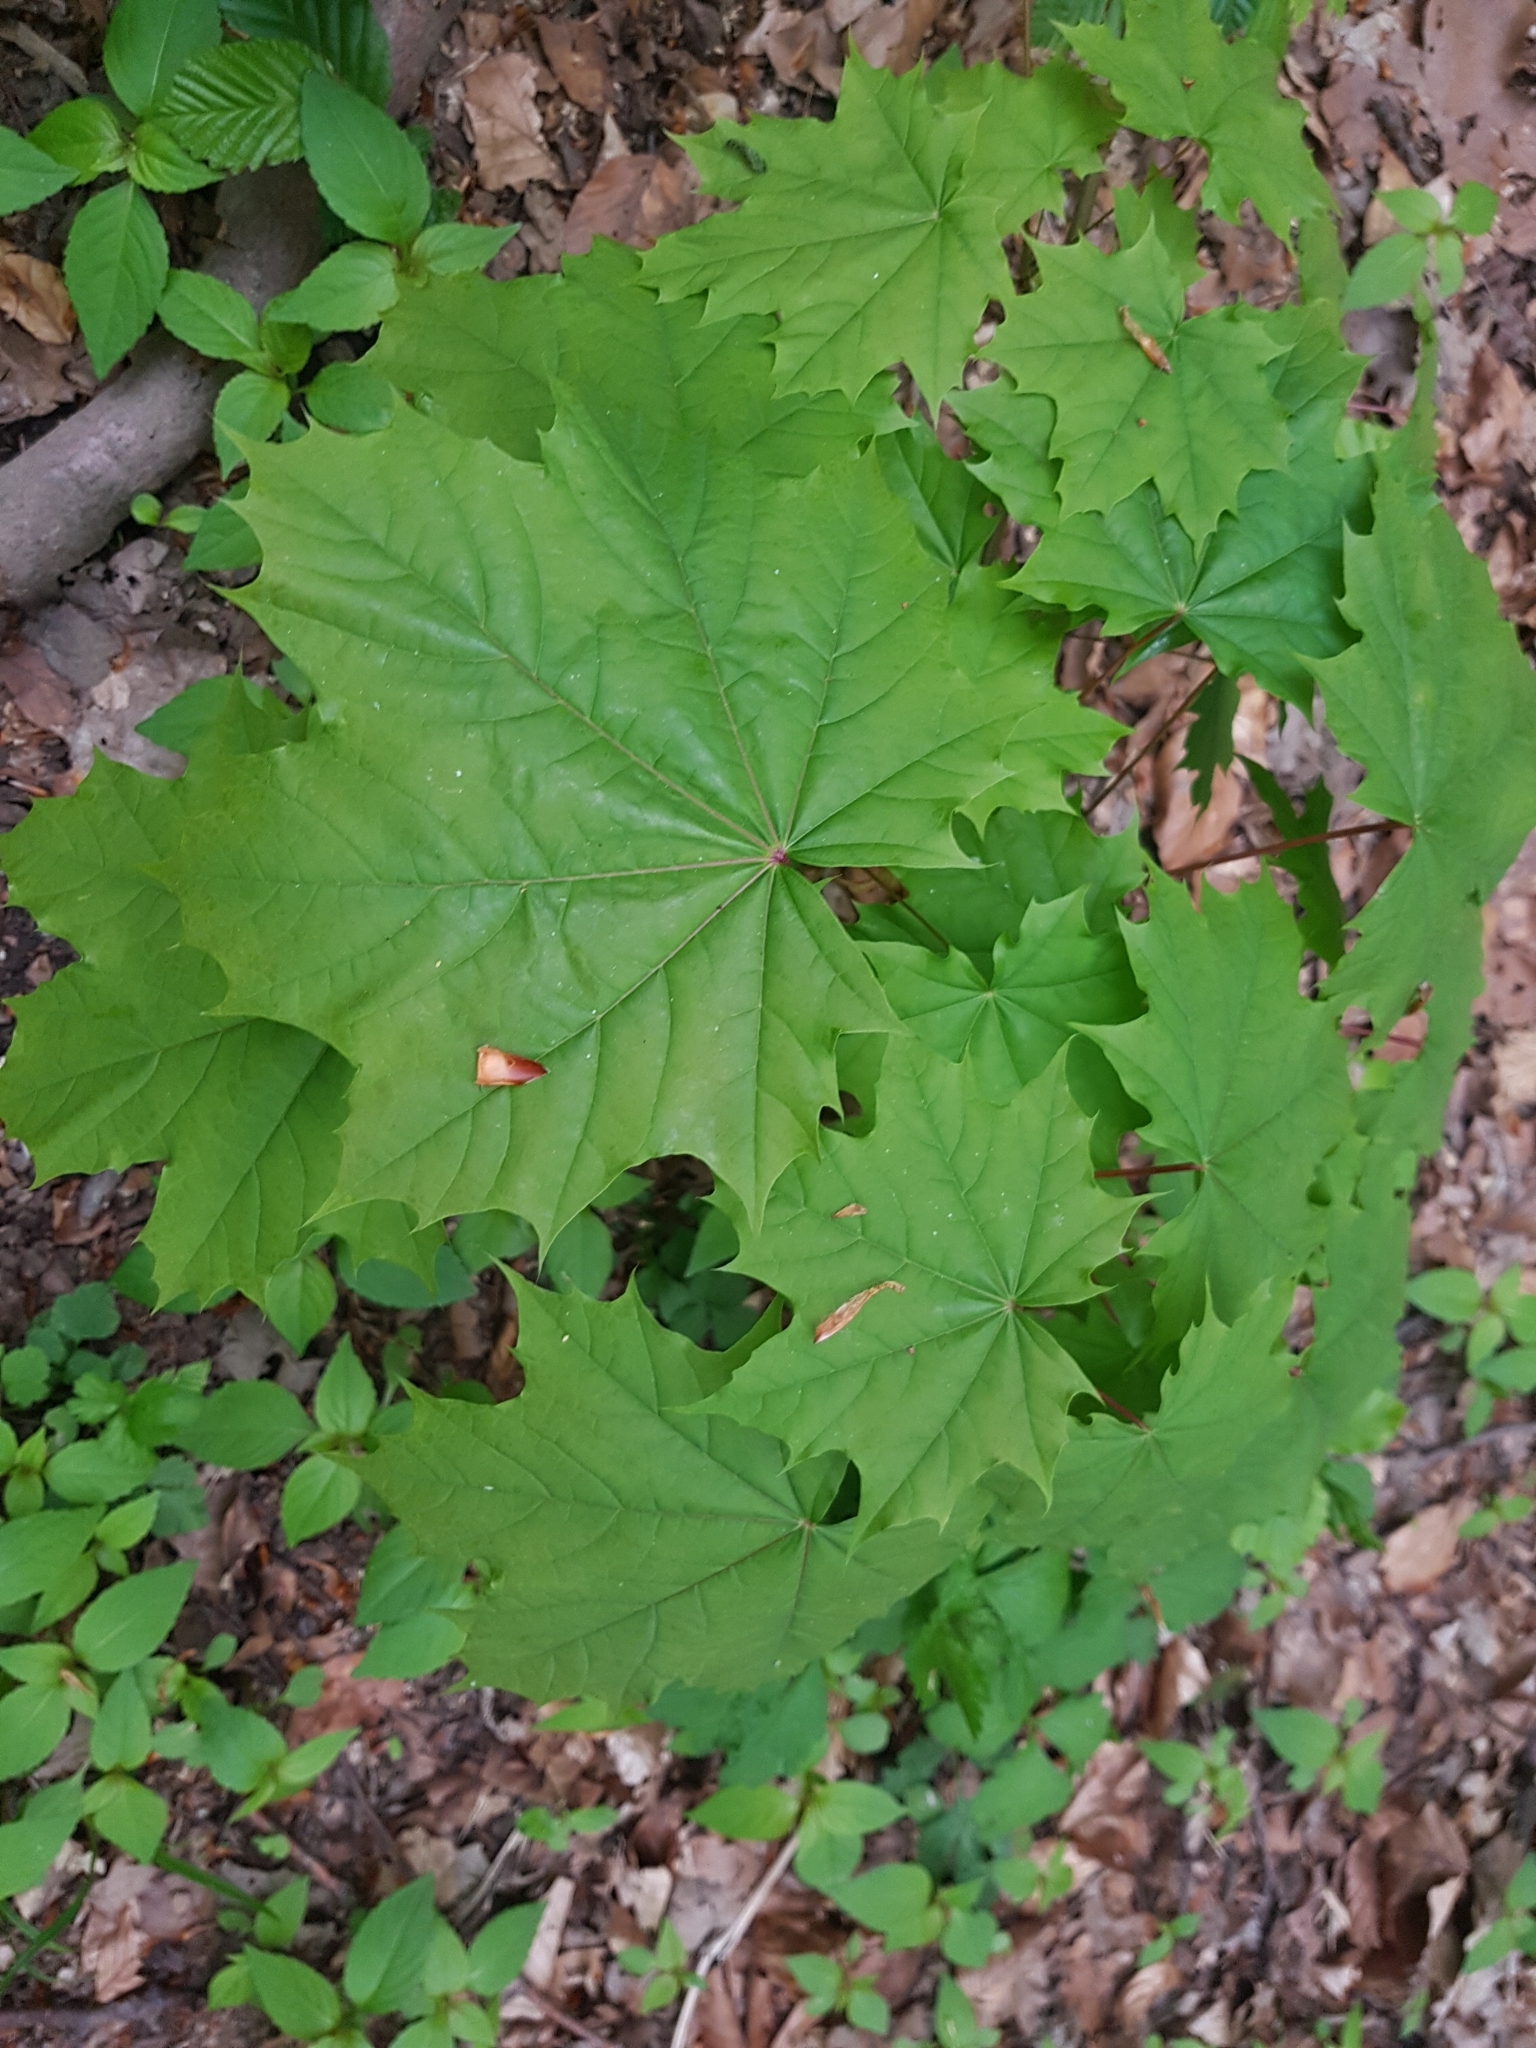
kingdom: Plantae
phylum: Tracheophyta
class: Magnoliopsida
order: Sapindales
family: Sapindaceae
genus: Acer
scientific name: Acer platanoides
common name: Norway maple
